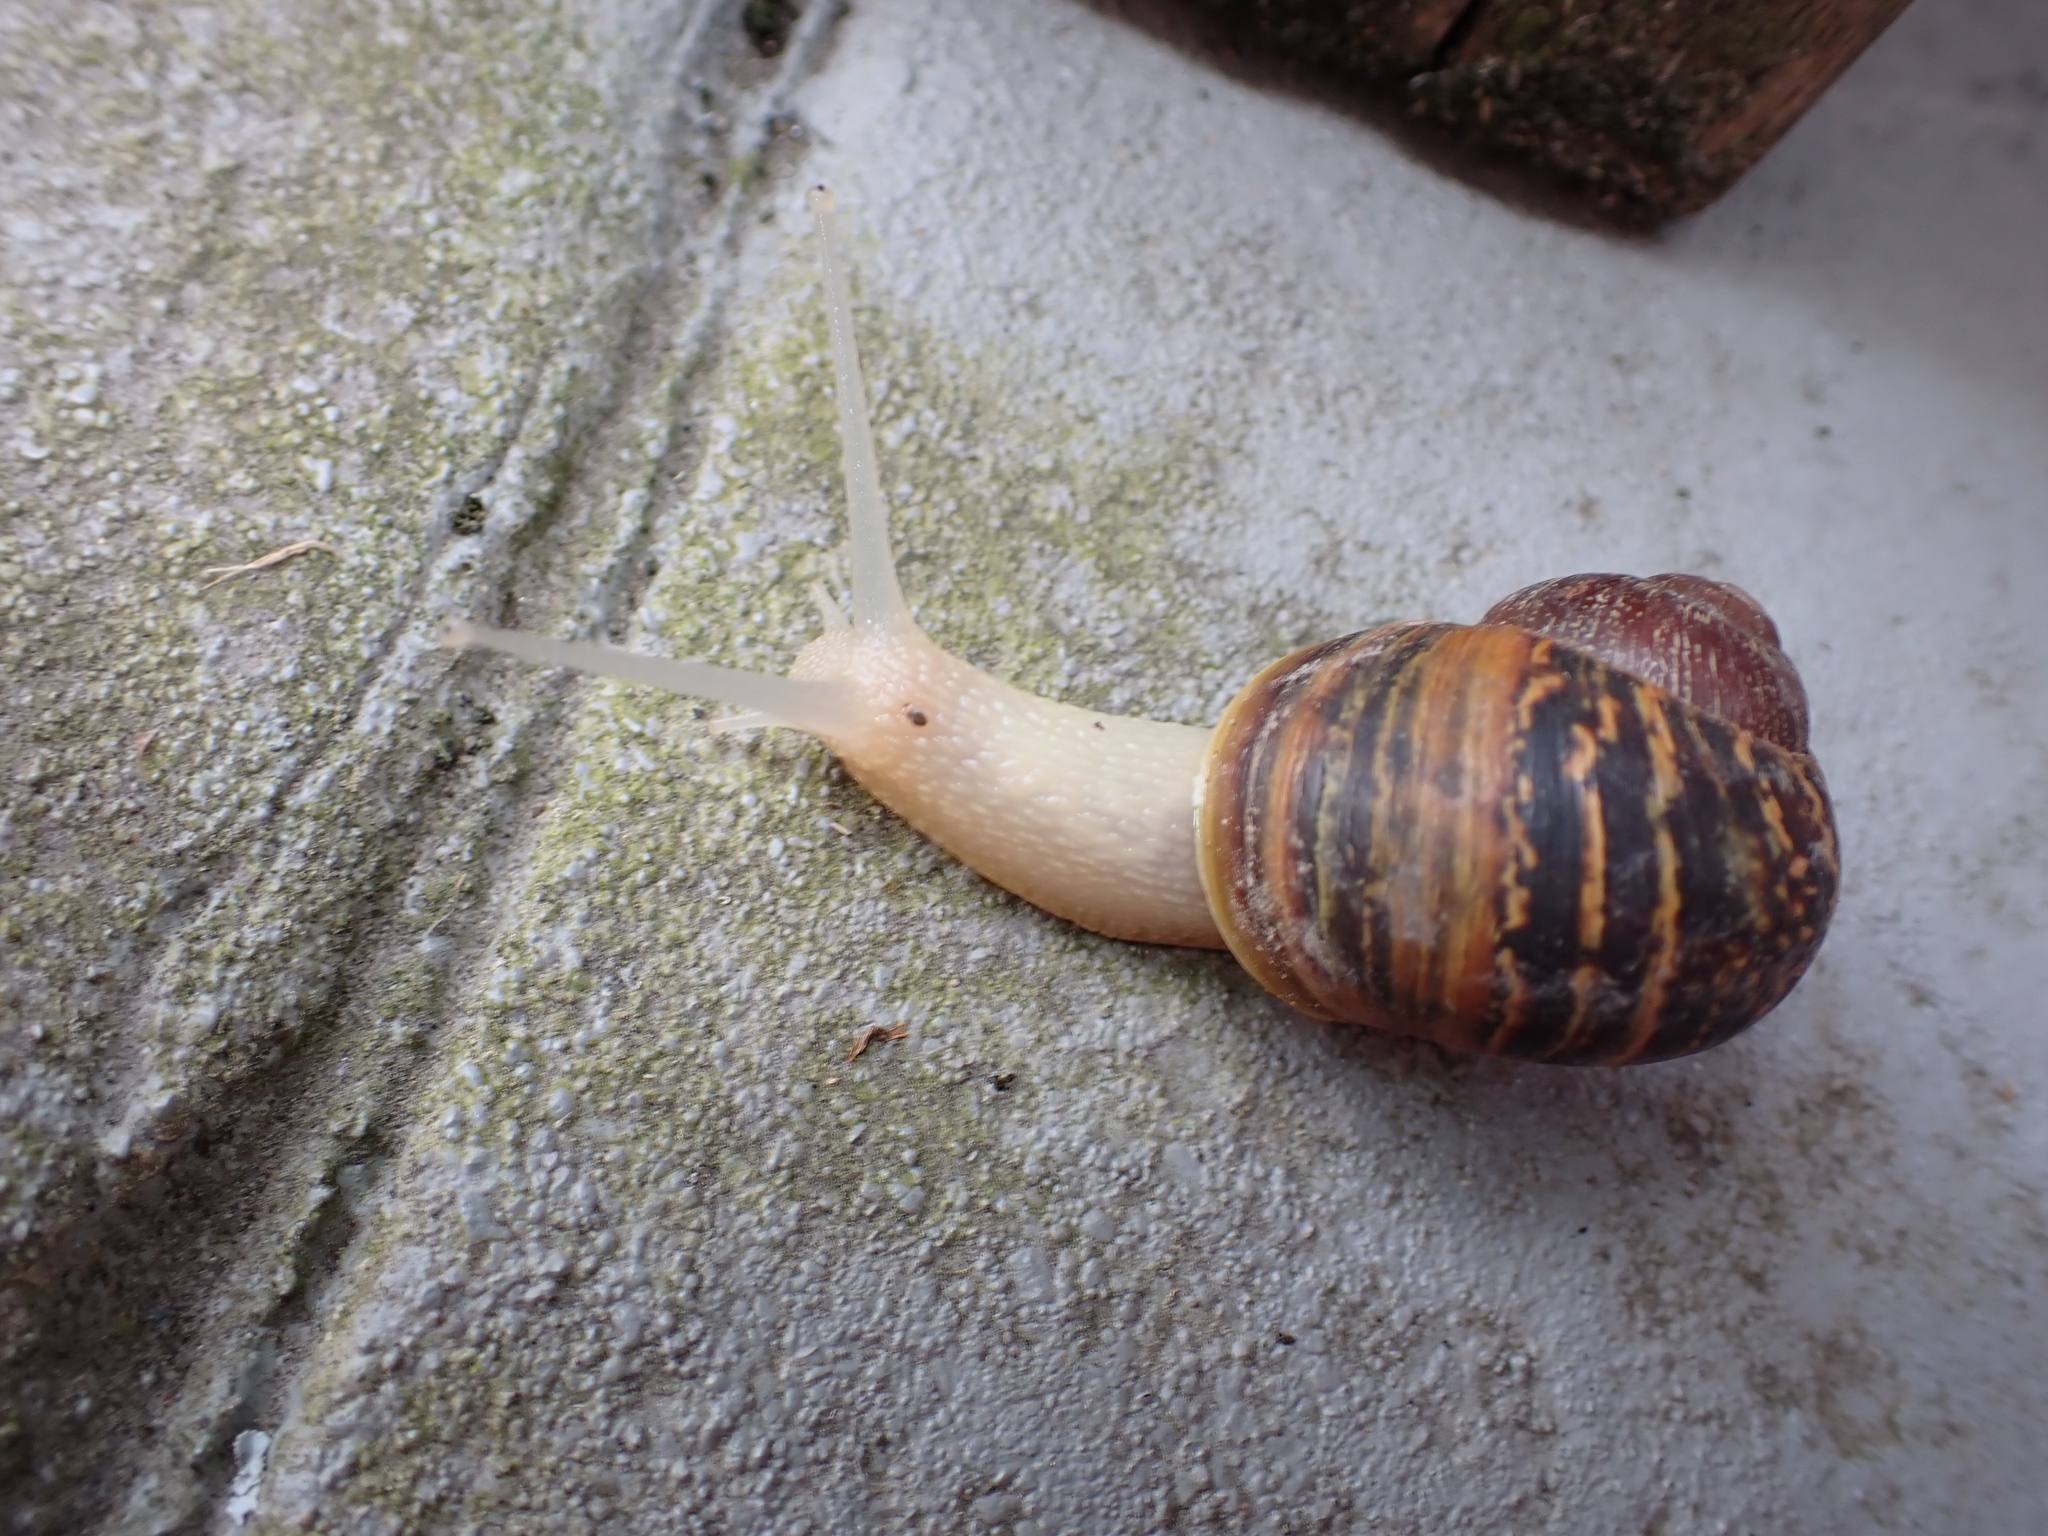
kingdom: Animalia
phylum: Mollusca
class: Gastropoda
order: Stylommatophora
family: Helicidae
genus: Cornu
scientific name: Cornu aspersum
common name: Brown garden snail
